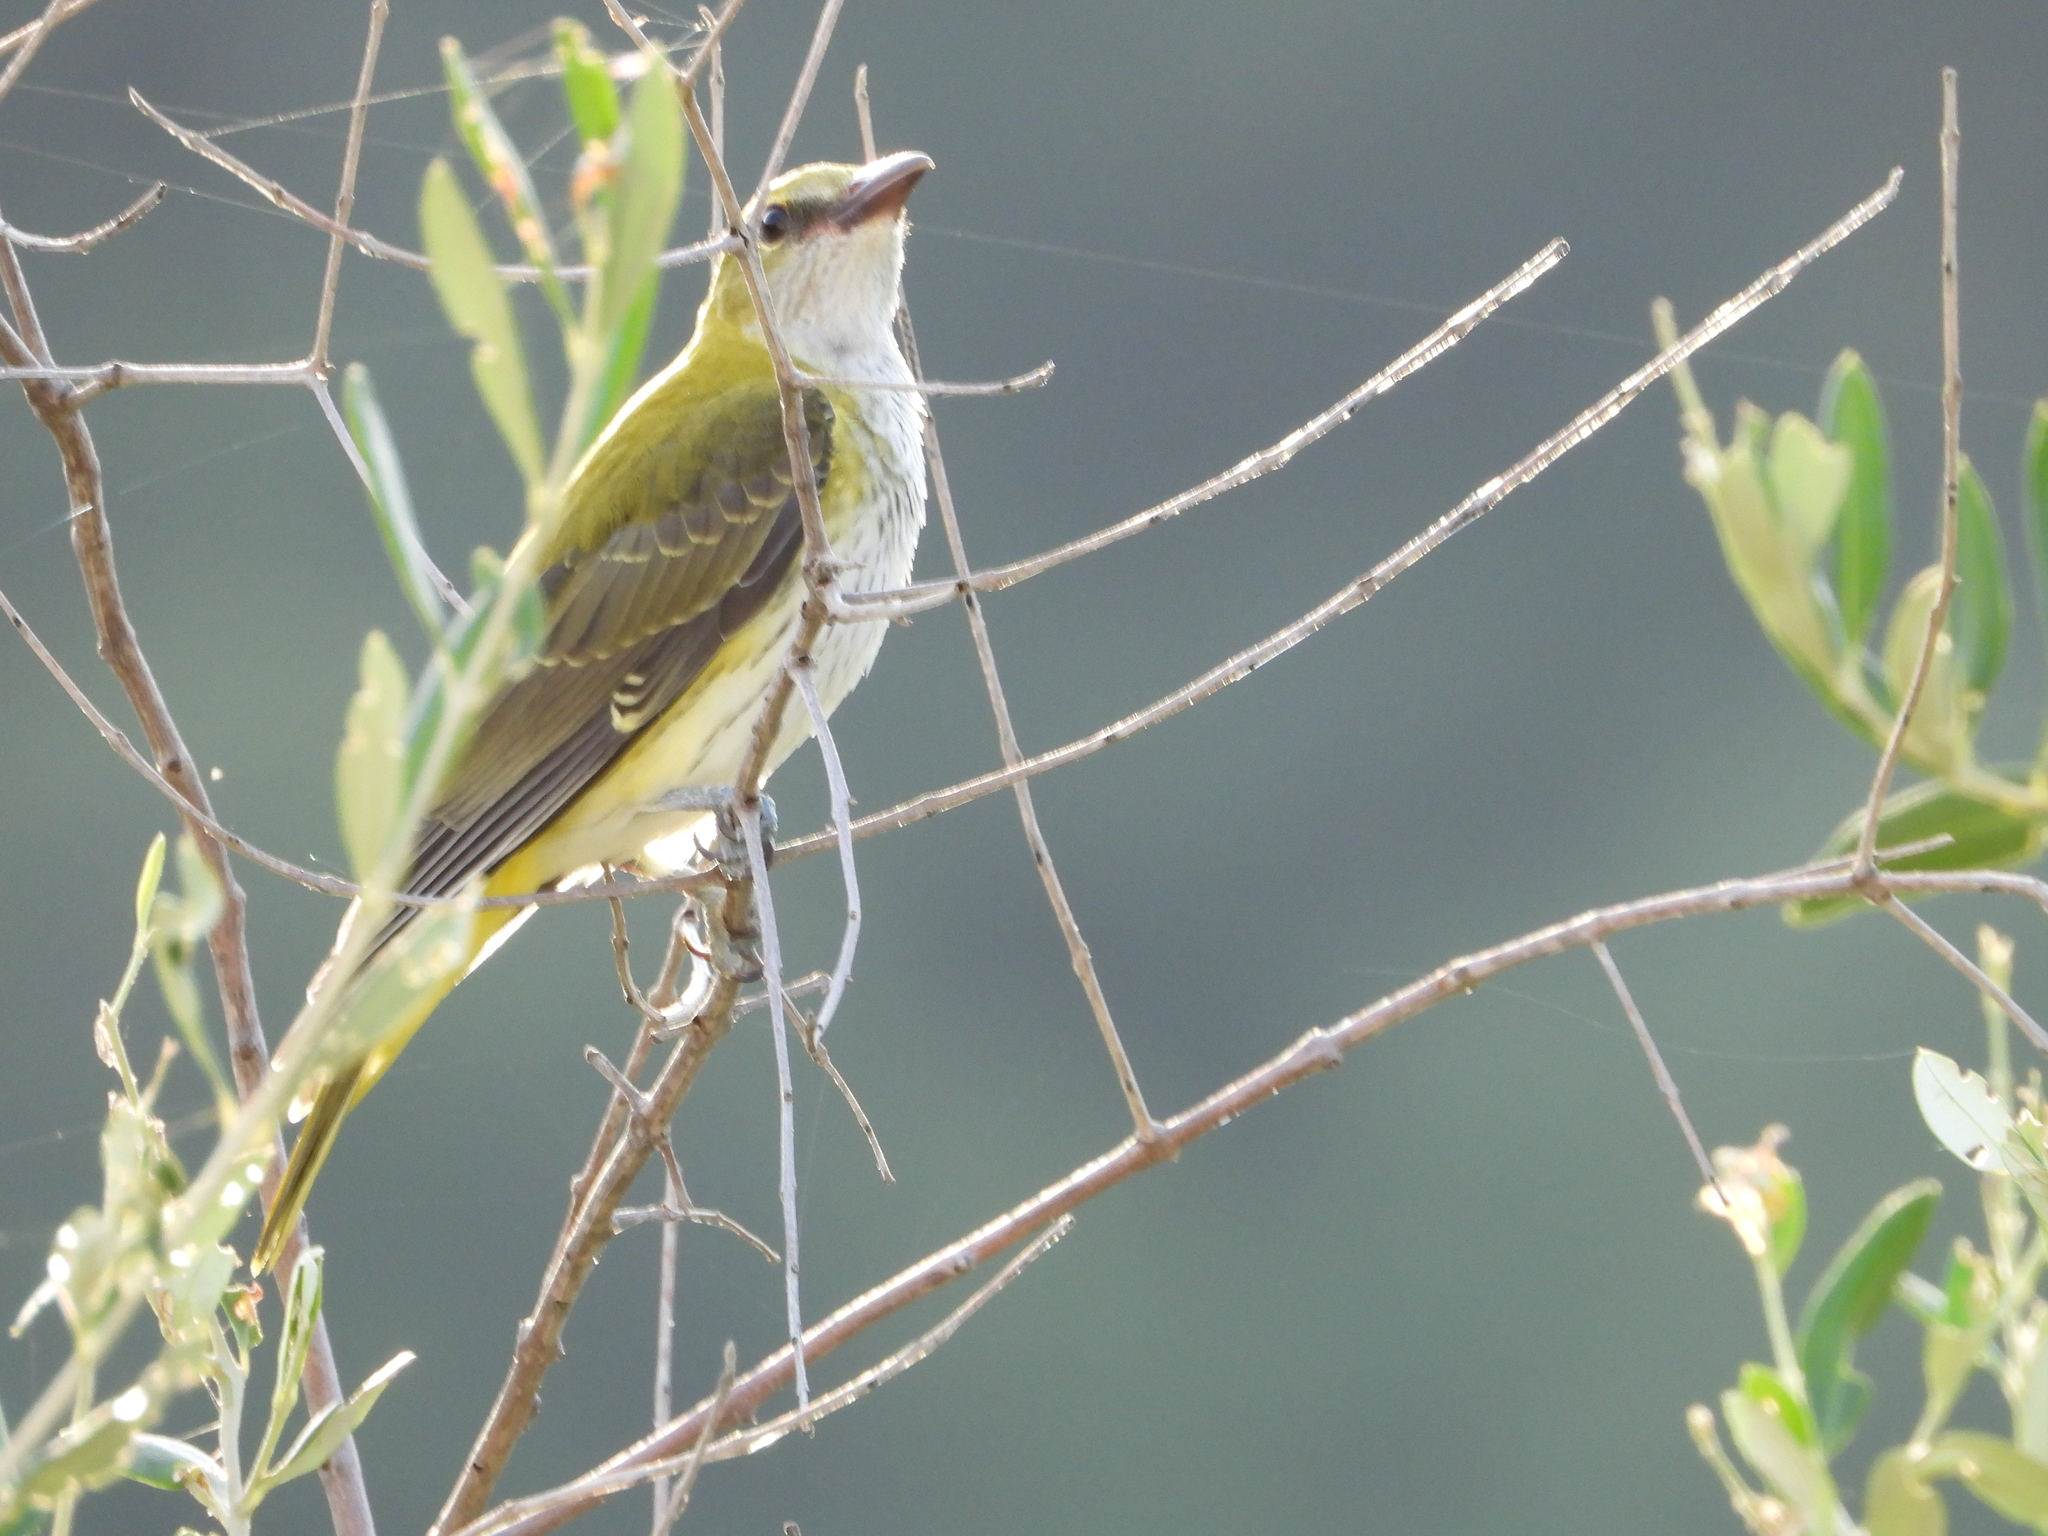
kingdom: Animalia
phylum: Chordata
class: Aves
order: Passeriformes
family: Oriolidae
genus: Oriolus
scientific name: Oriolus oriolus
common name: Eurasian golden oriole
